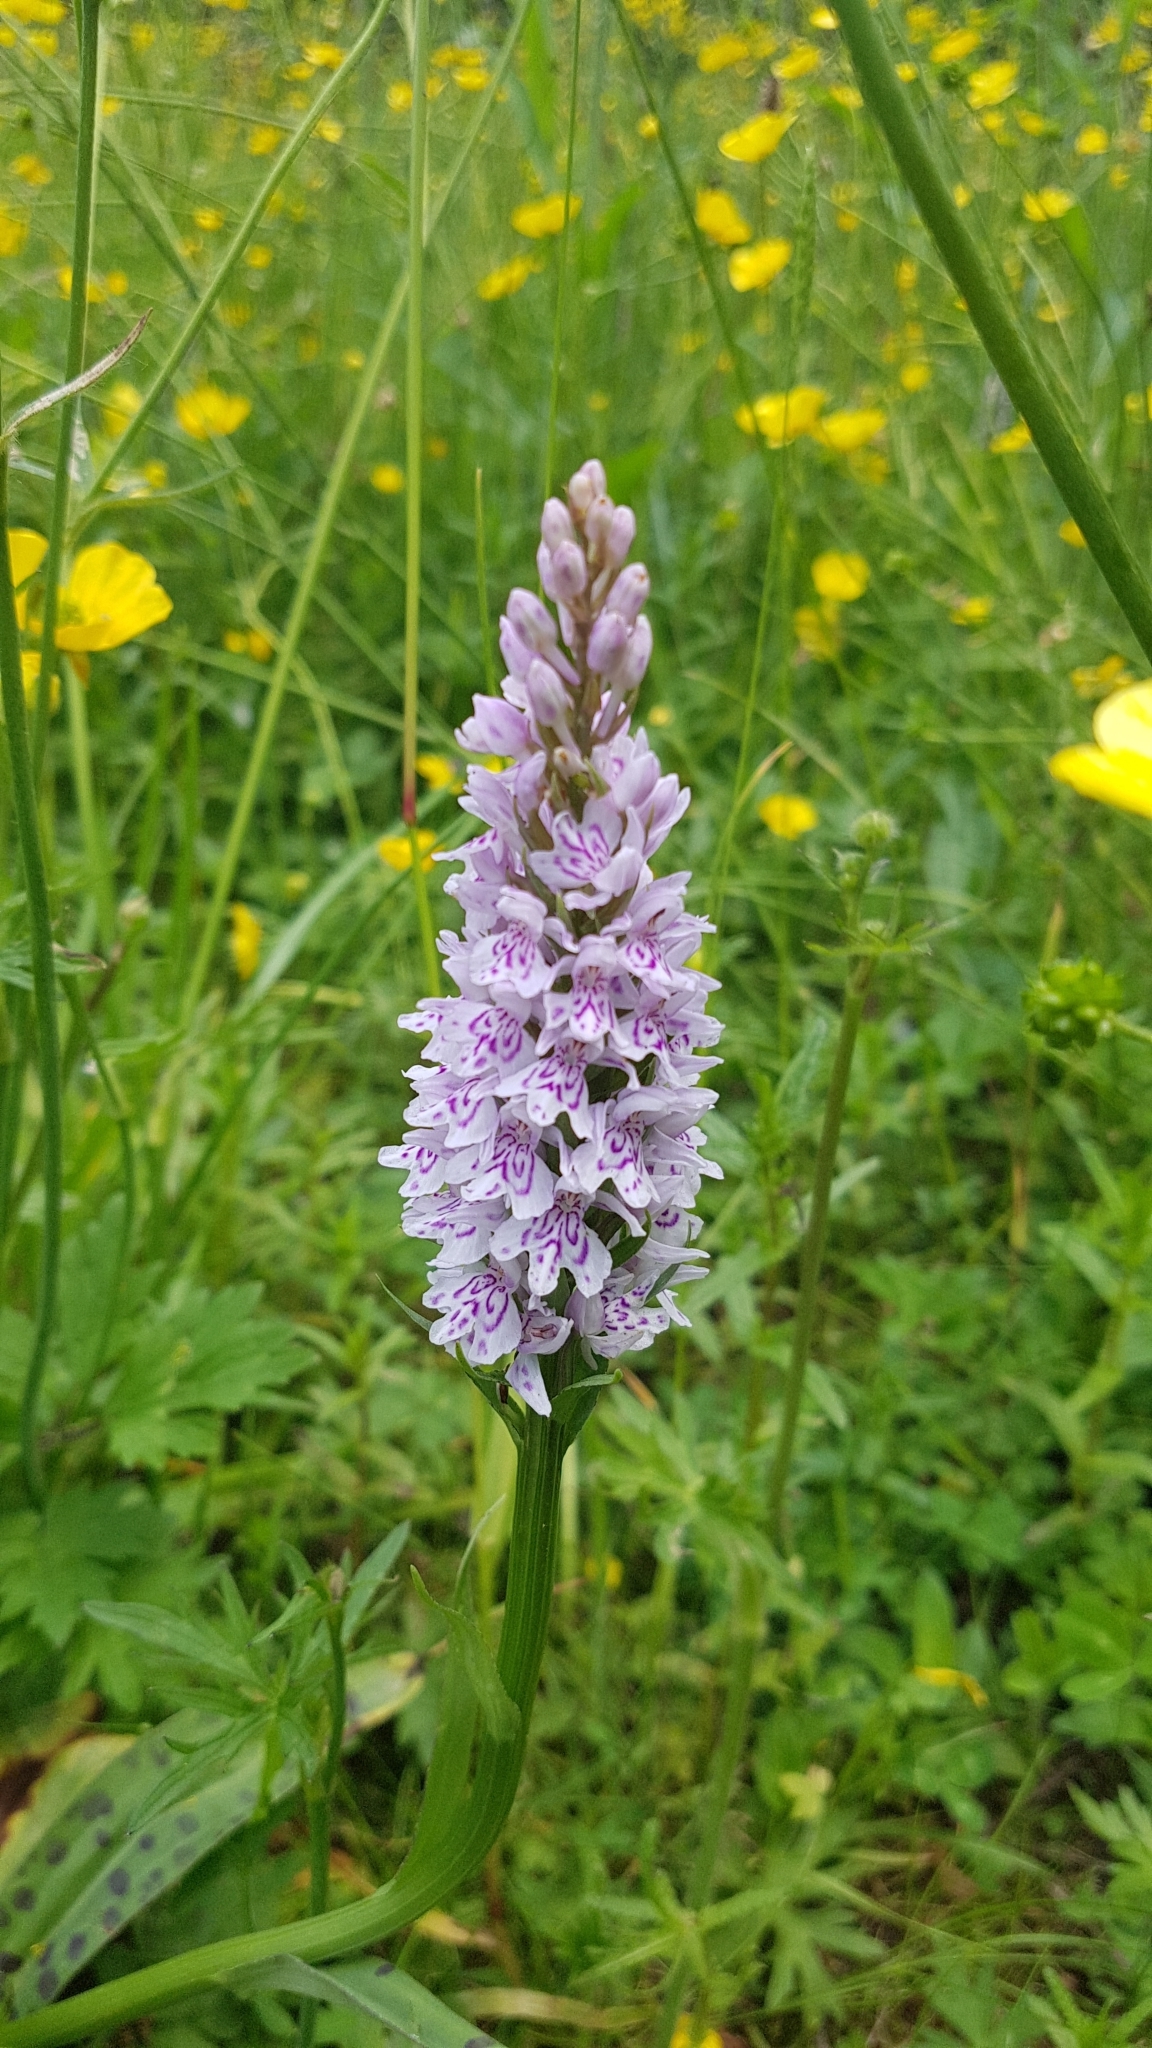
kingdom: Plantae
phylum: Tracheophyta
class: Liliopsida
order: Asparagales
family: Orchidaceae
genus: Dactylorhiza
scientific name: Dactylorhiza maculata
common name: Heath spotted-orchid
